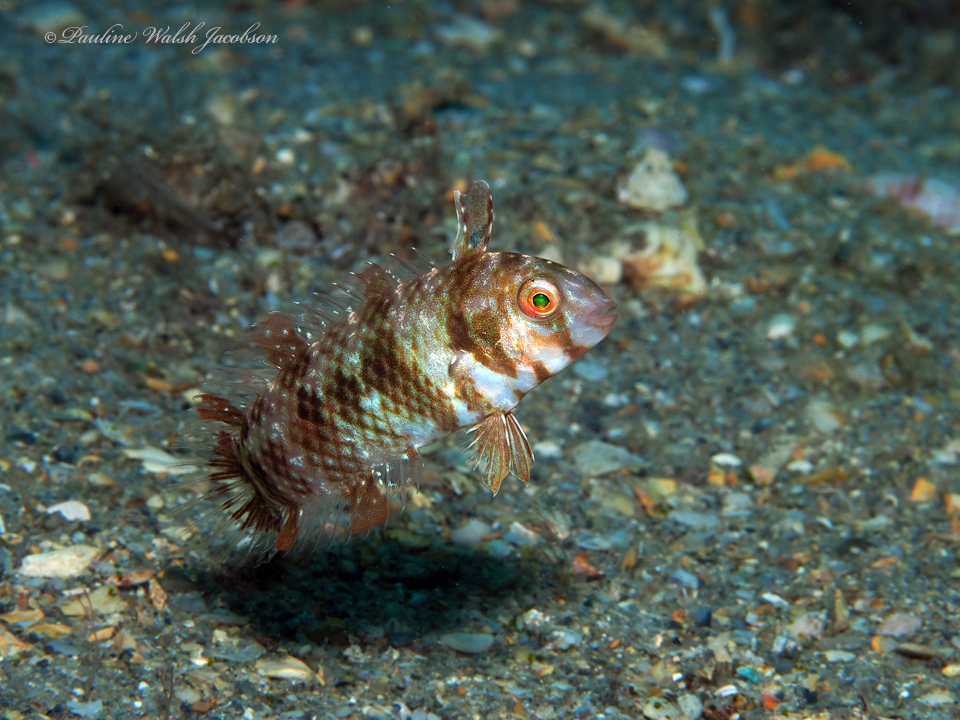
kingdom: Animalia
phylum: Chordata
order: Perciformes
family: Labridae
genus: Xyrichtys
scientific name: Xyrichtys splendens
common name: Green razorfish
